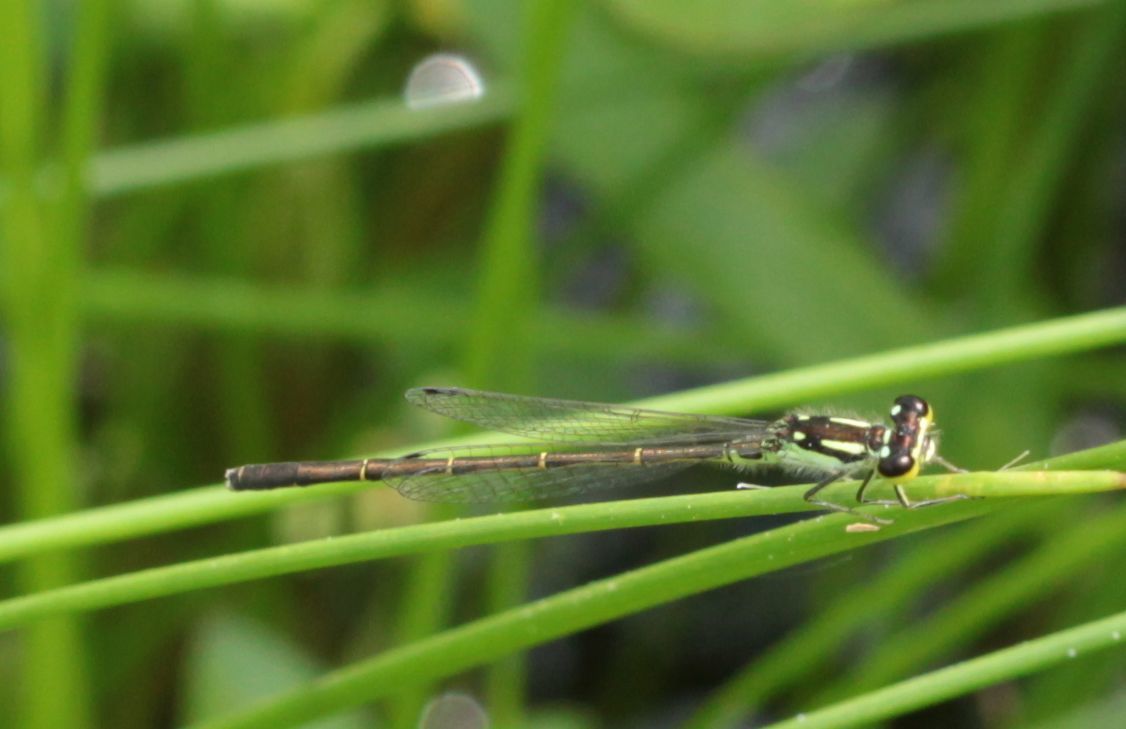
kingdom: Animalia
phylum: Arthropoda
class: Insecta
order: Odonata
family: Coenagrionidae
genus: Ischnura
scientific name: Ischnura posita
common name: Fragile forktail
